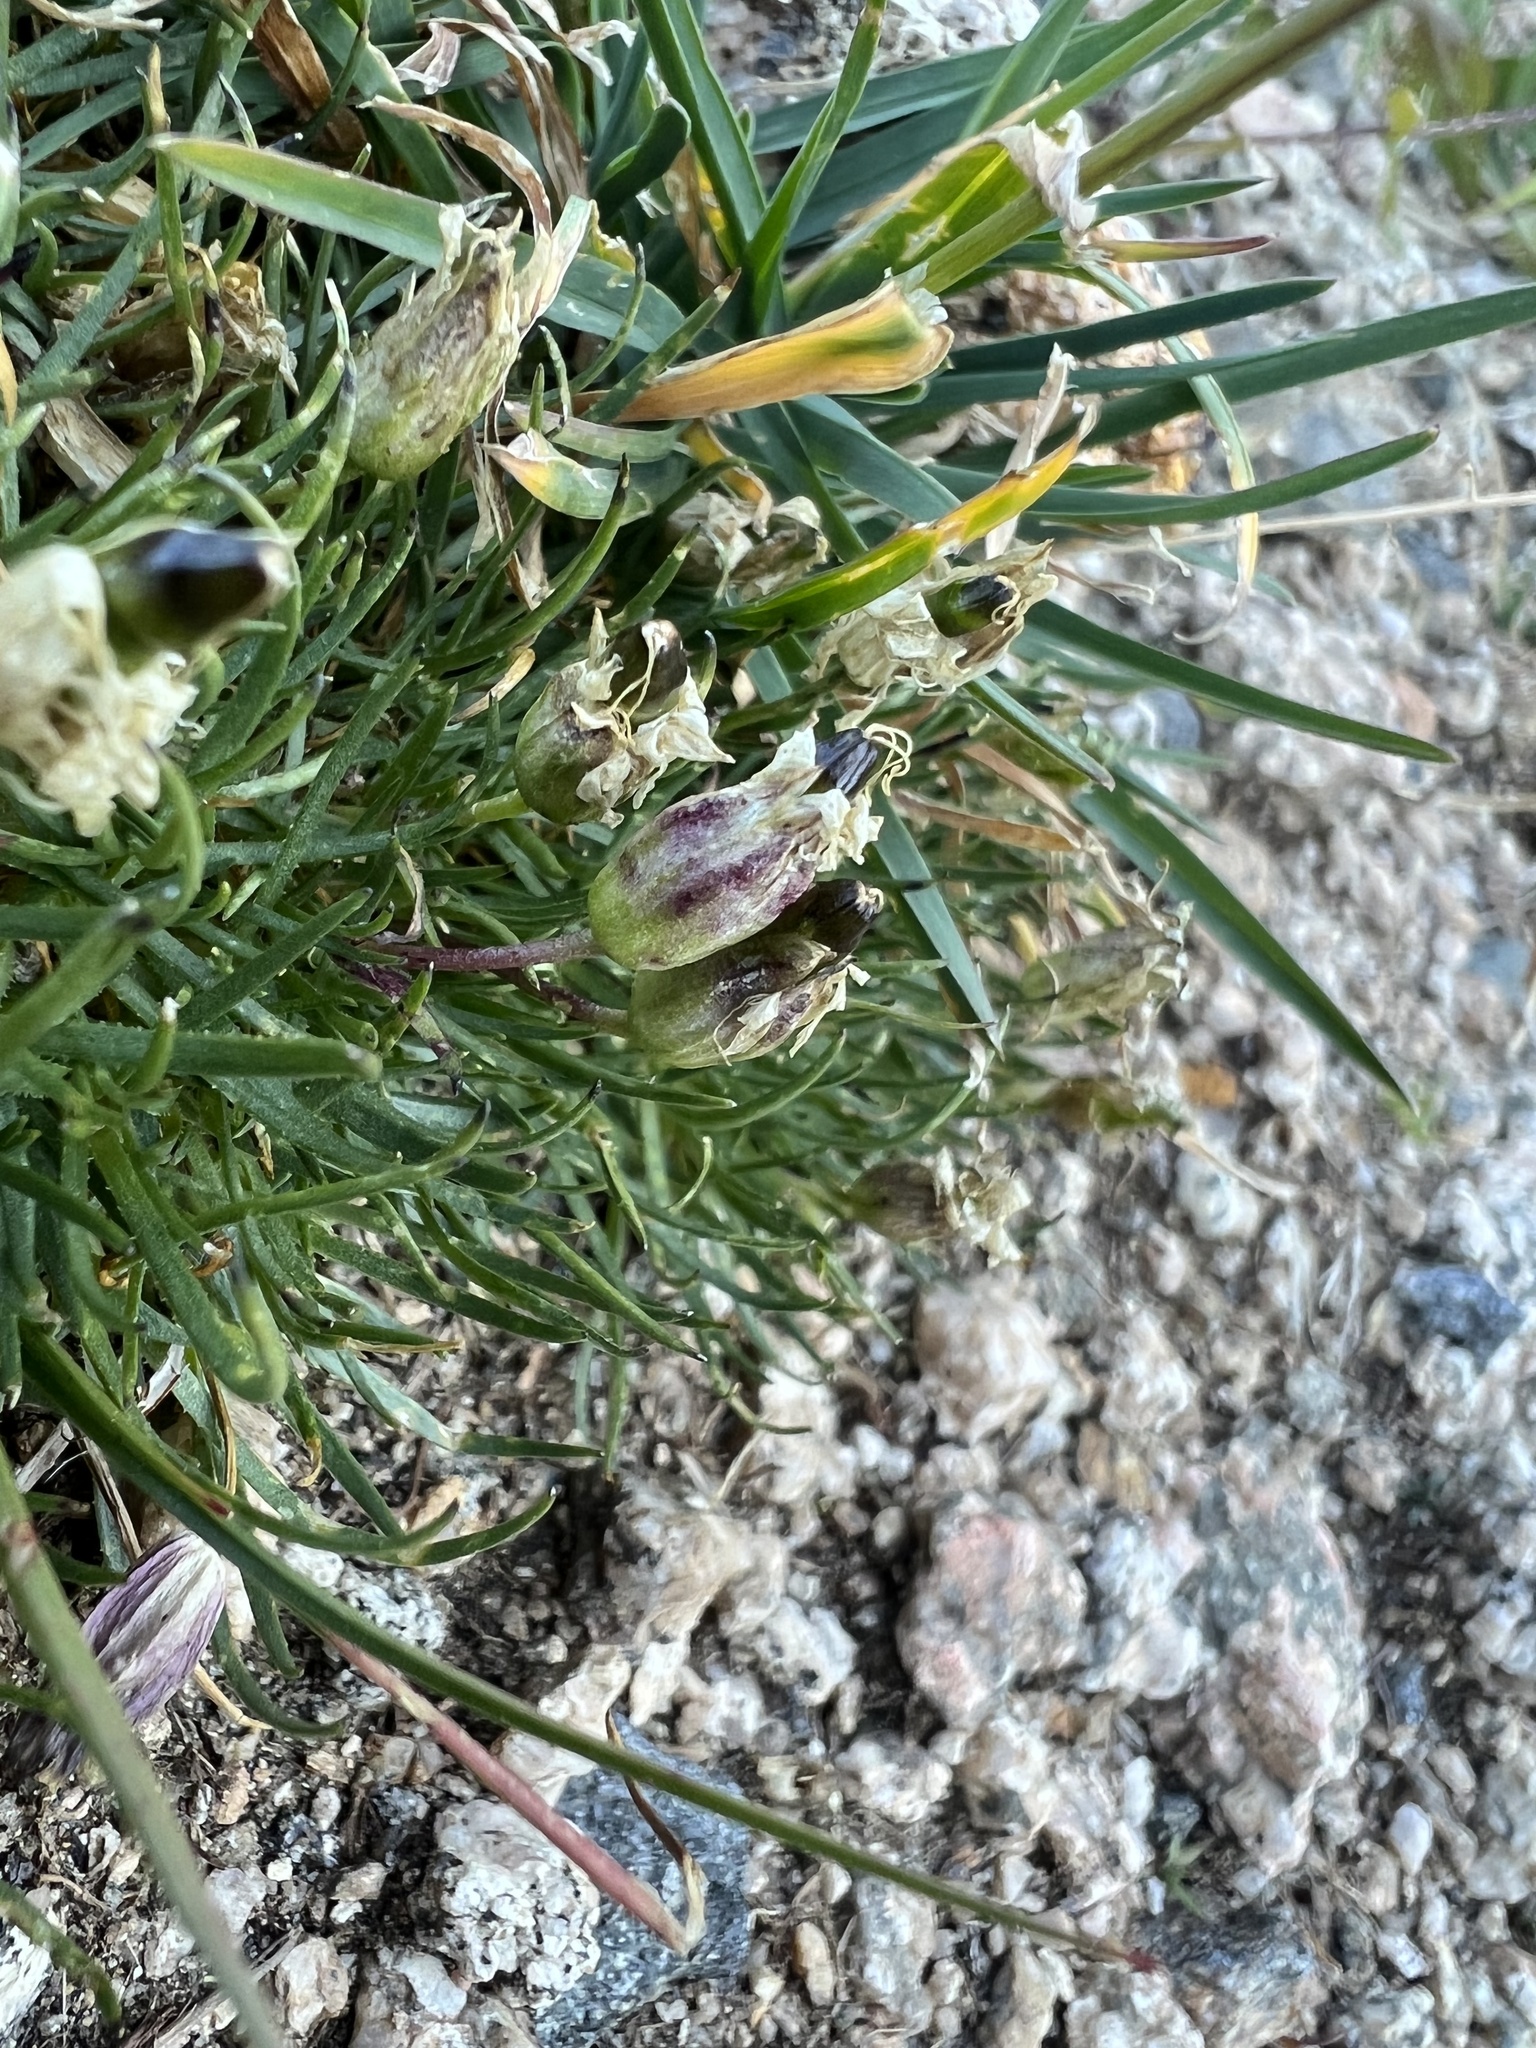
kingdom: Plantae
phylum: Tracheophyta
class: Magnoliopsida
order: Caryophyllales
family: Caryophyllaceae
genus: Silene
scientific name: Silene acaulis
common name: Moss campion
